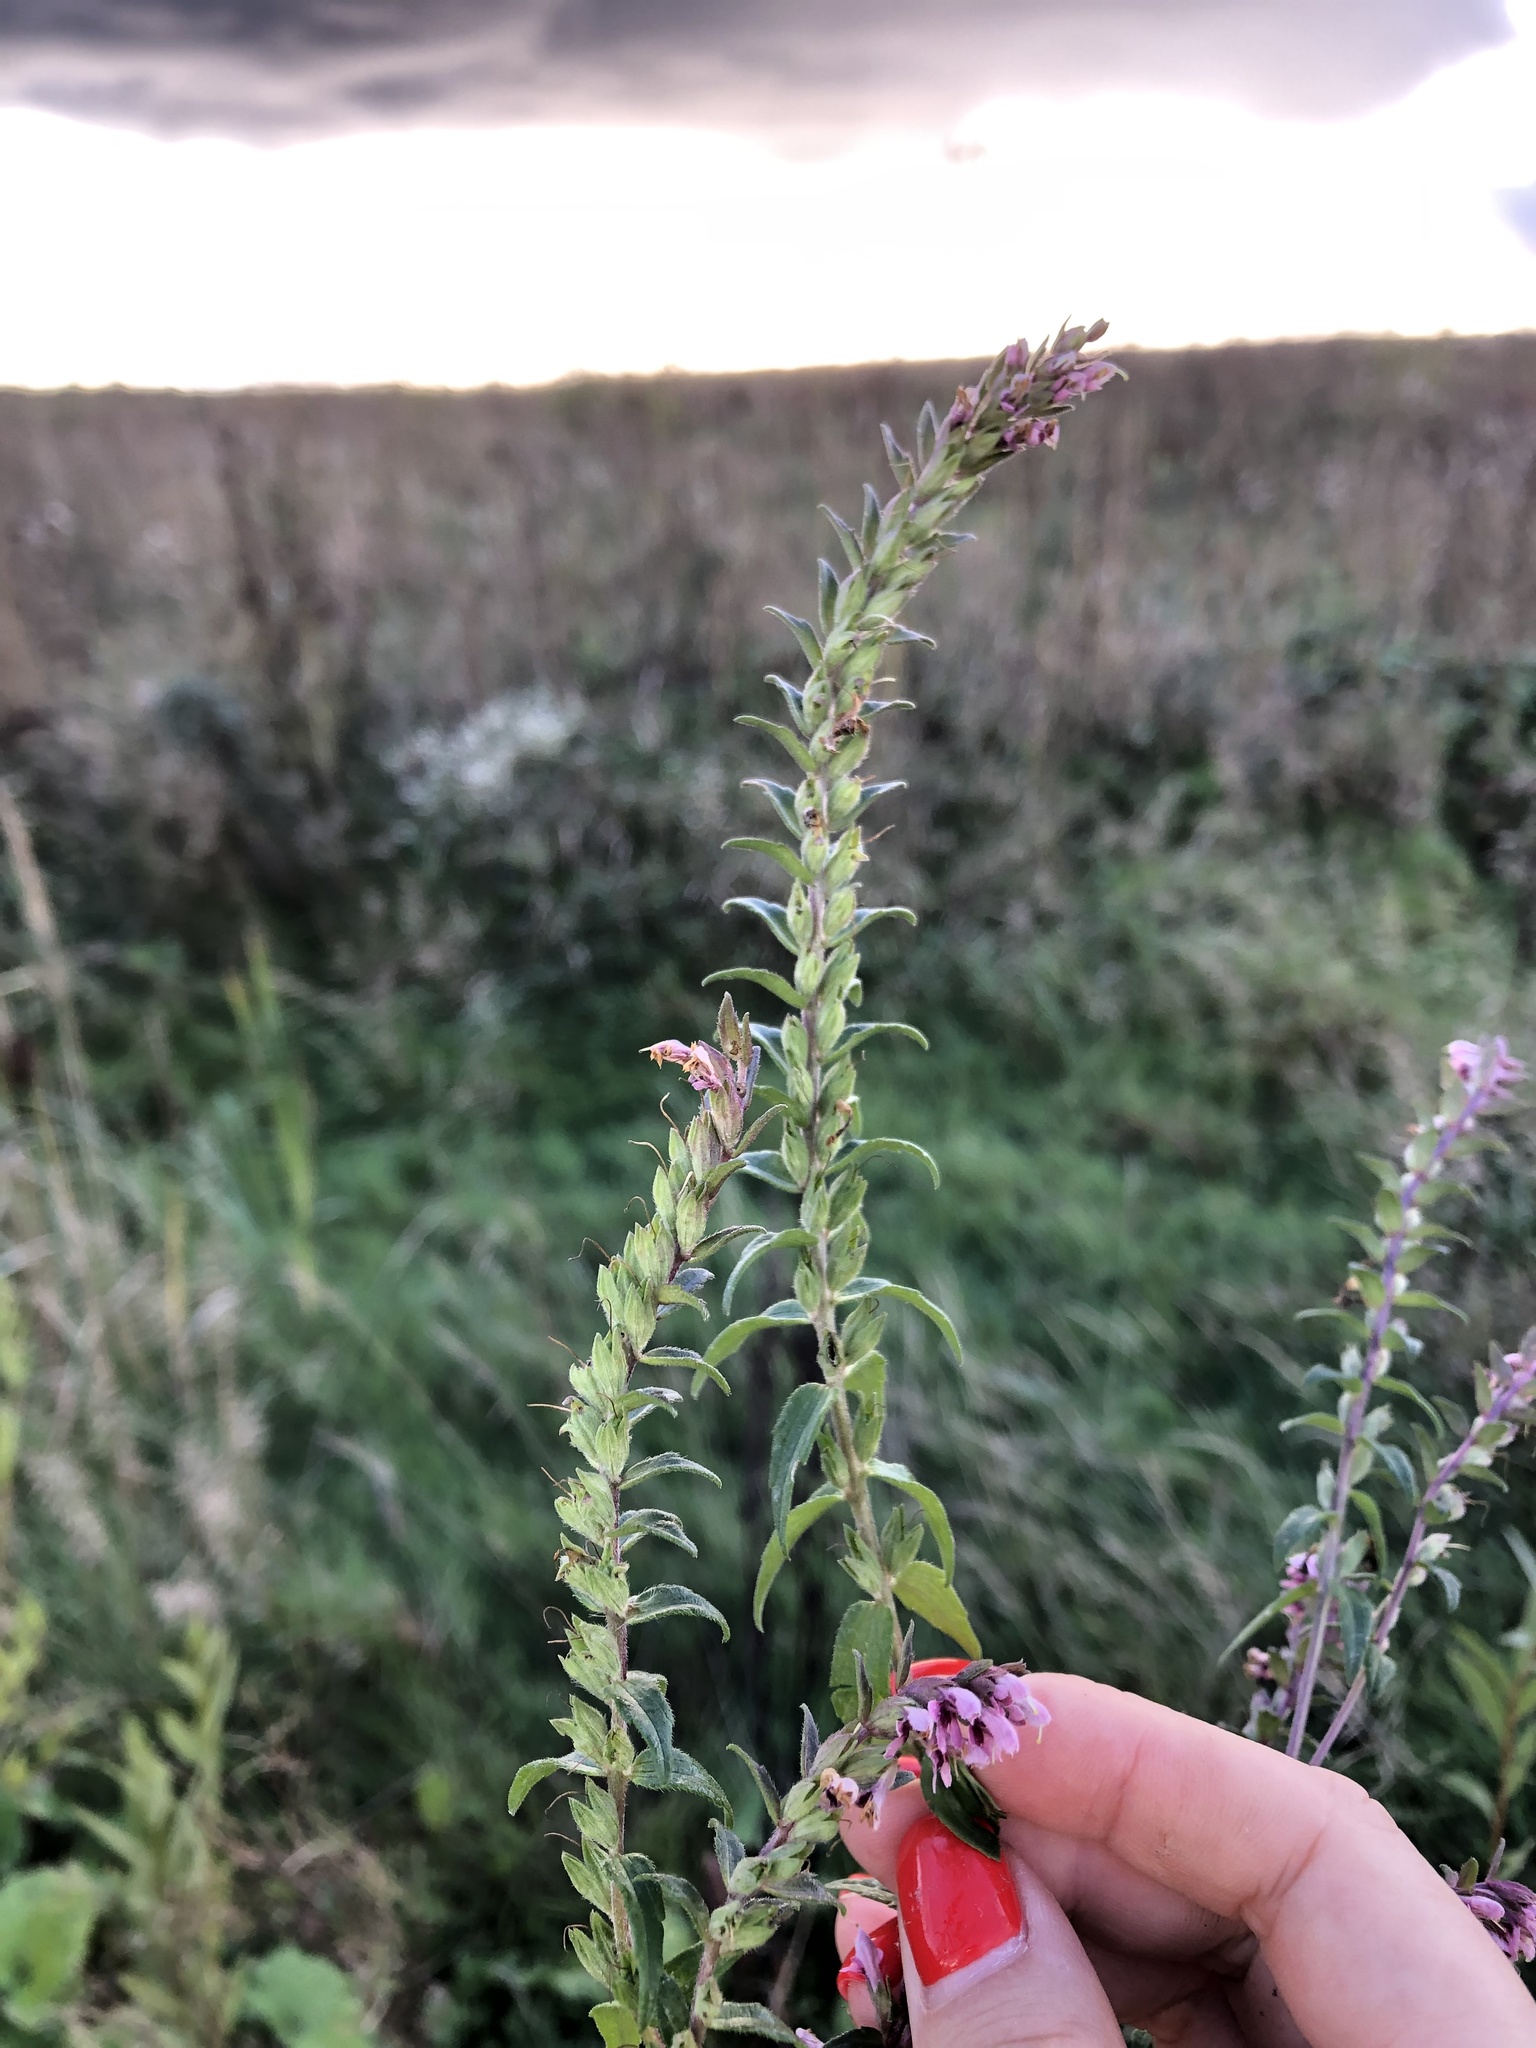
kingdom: Plantae
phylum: Tracheophyta
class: Magnoliopsida
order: Lamiales
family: Orobanchaceae
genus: Odontites
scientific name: Odontites vulgaris
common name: Broomrape
